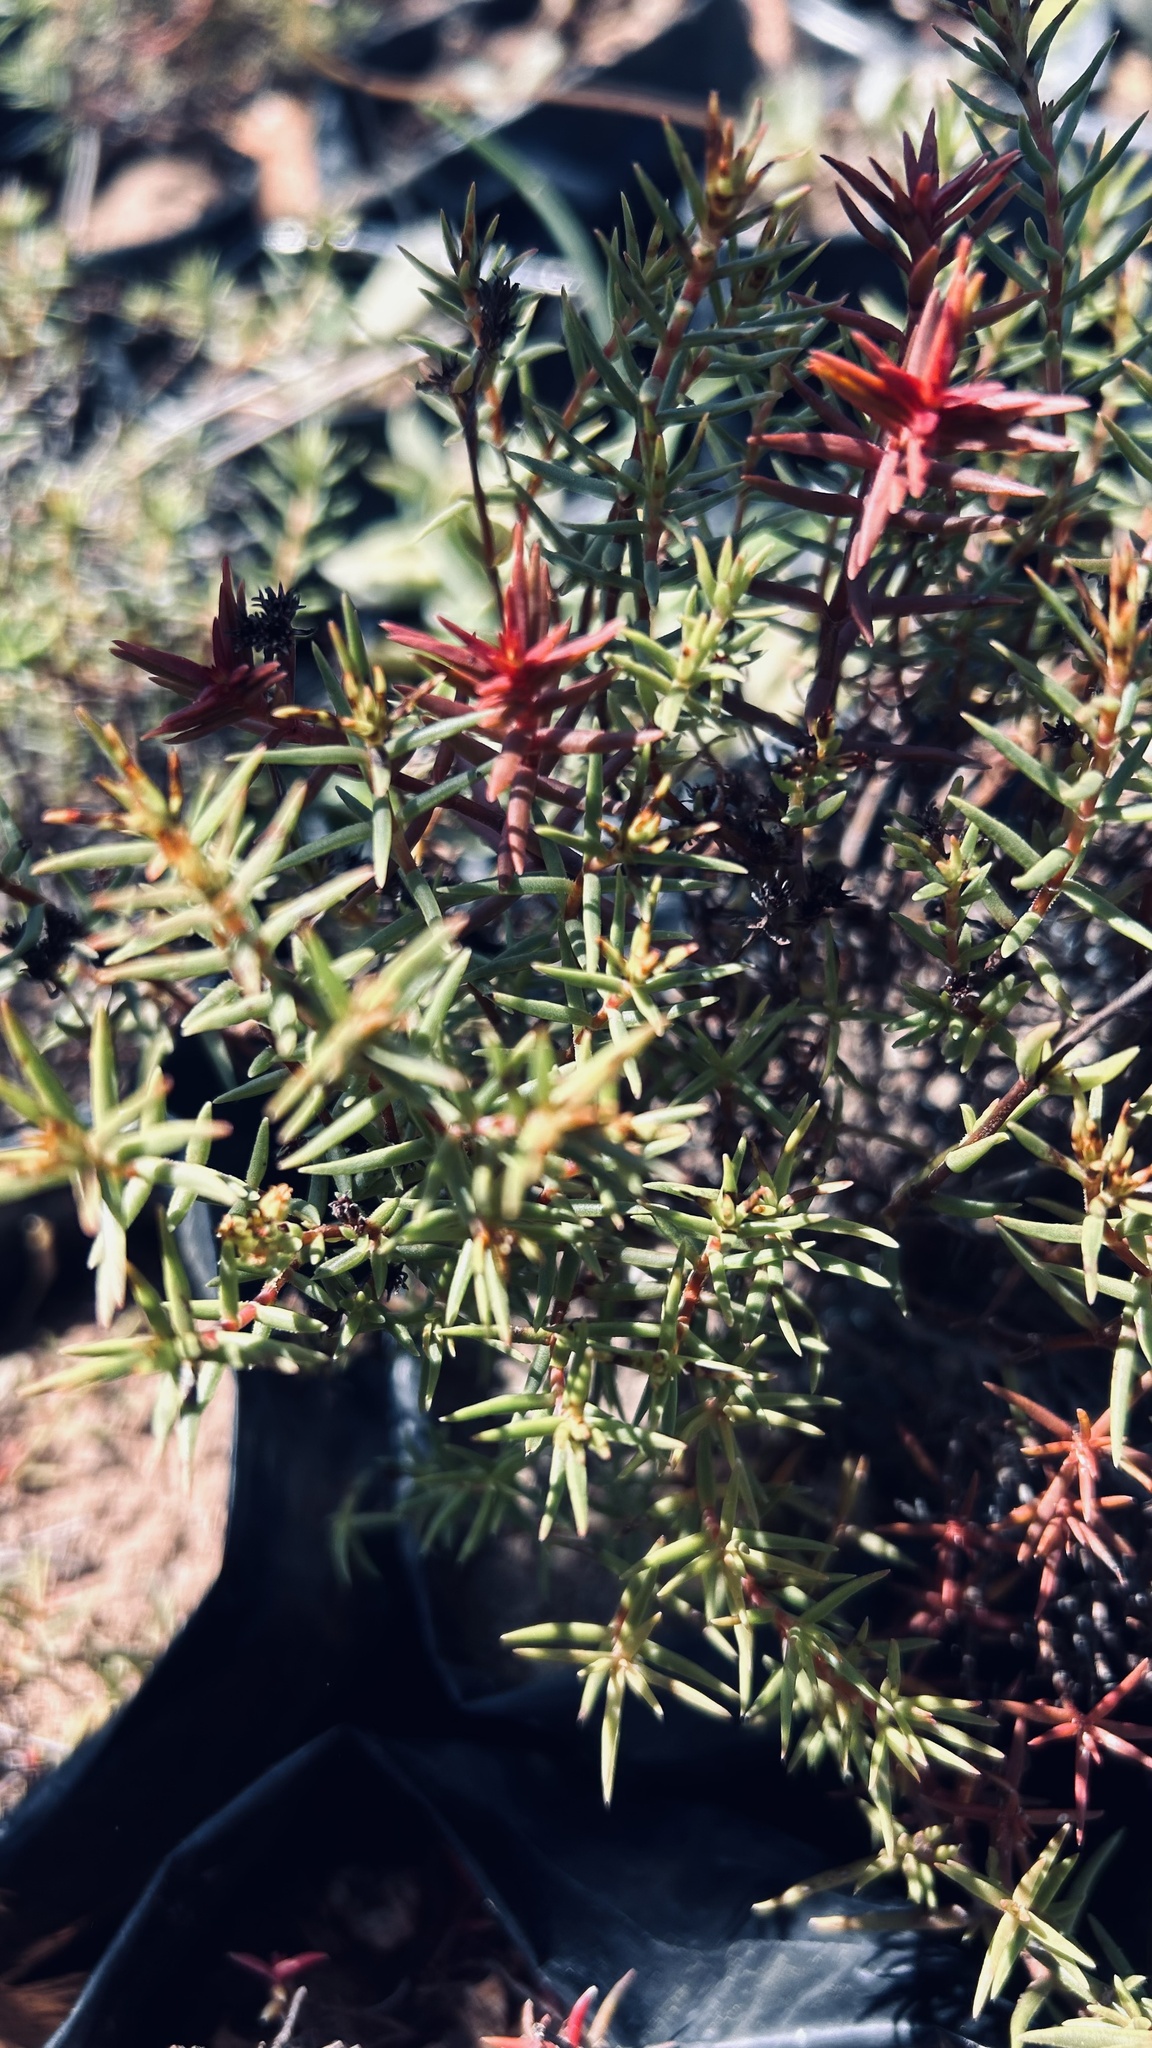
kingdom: Plantae
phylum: Tracheophyta
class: Magnoliopsida
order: Saxifragales
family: Crassulaceae
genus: Crassula
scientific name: Crassula subulata
